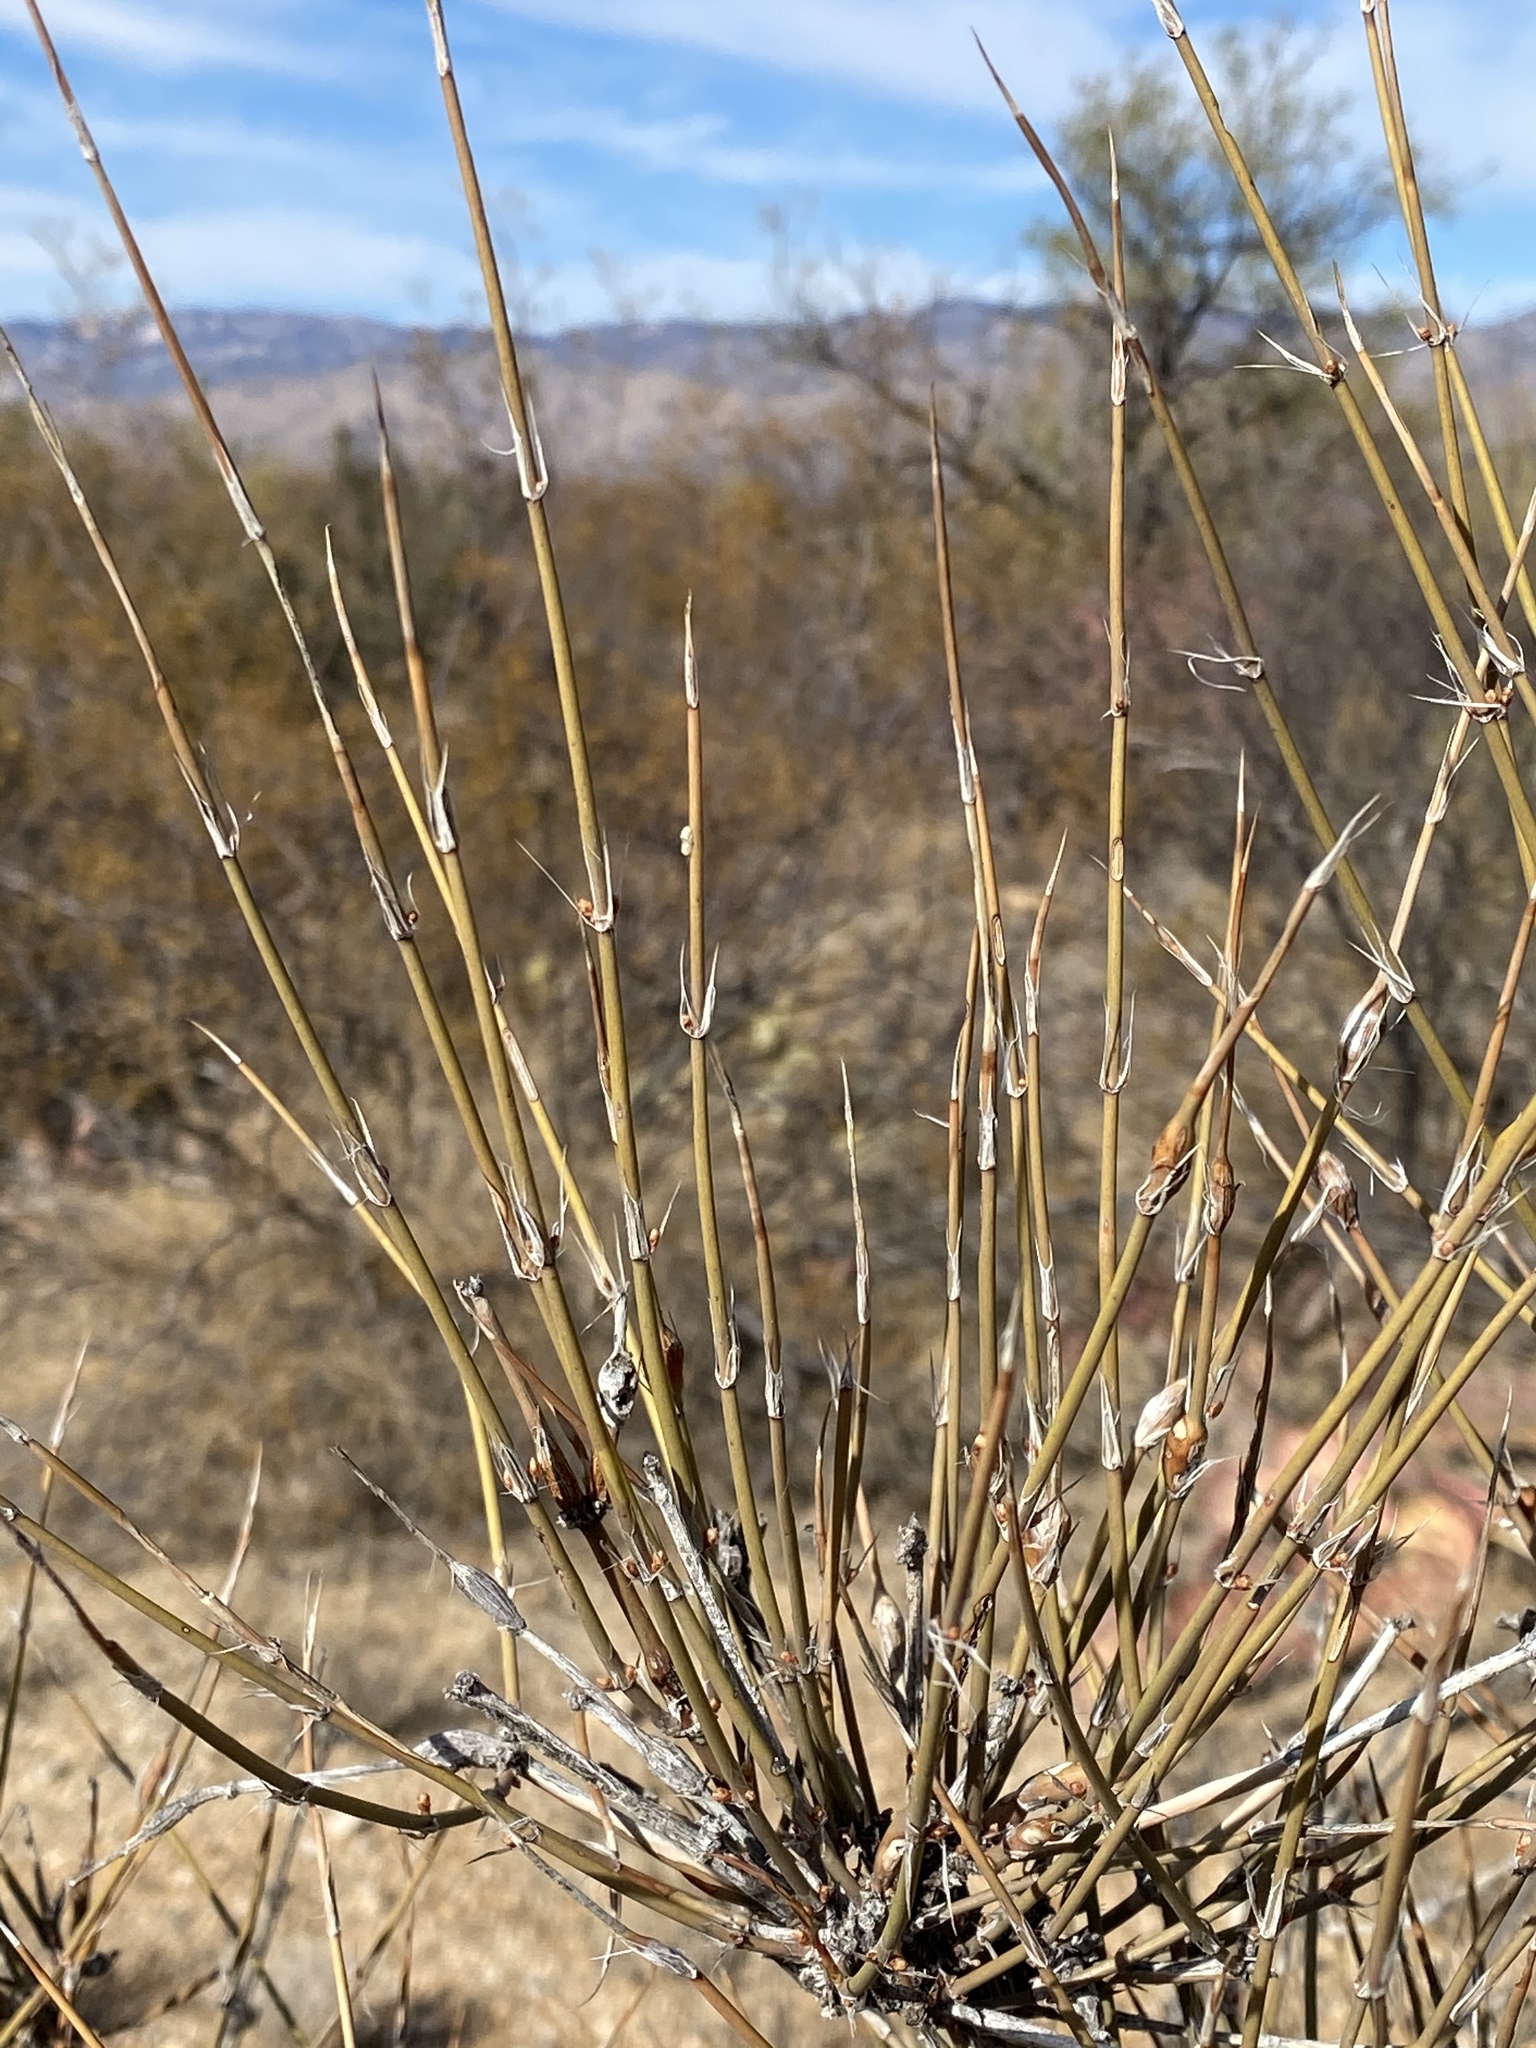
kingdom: Plantae
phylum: Tracheophyta
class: Gnetopsida
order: Ephedrales
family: Ephedraceae
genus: Ephedra
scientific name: Ephedra trifurca
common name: Mexican-tea
